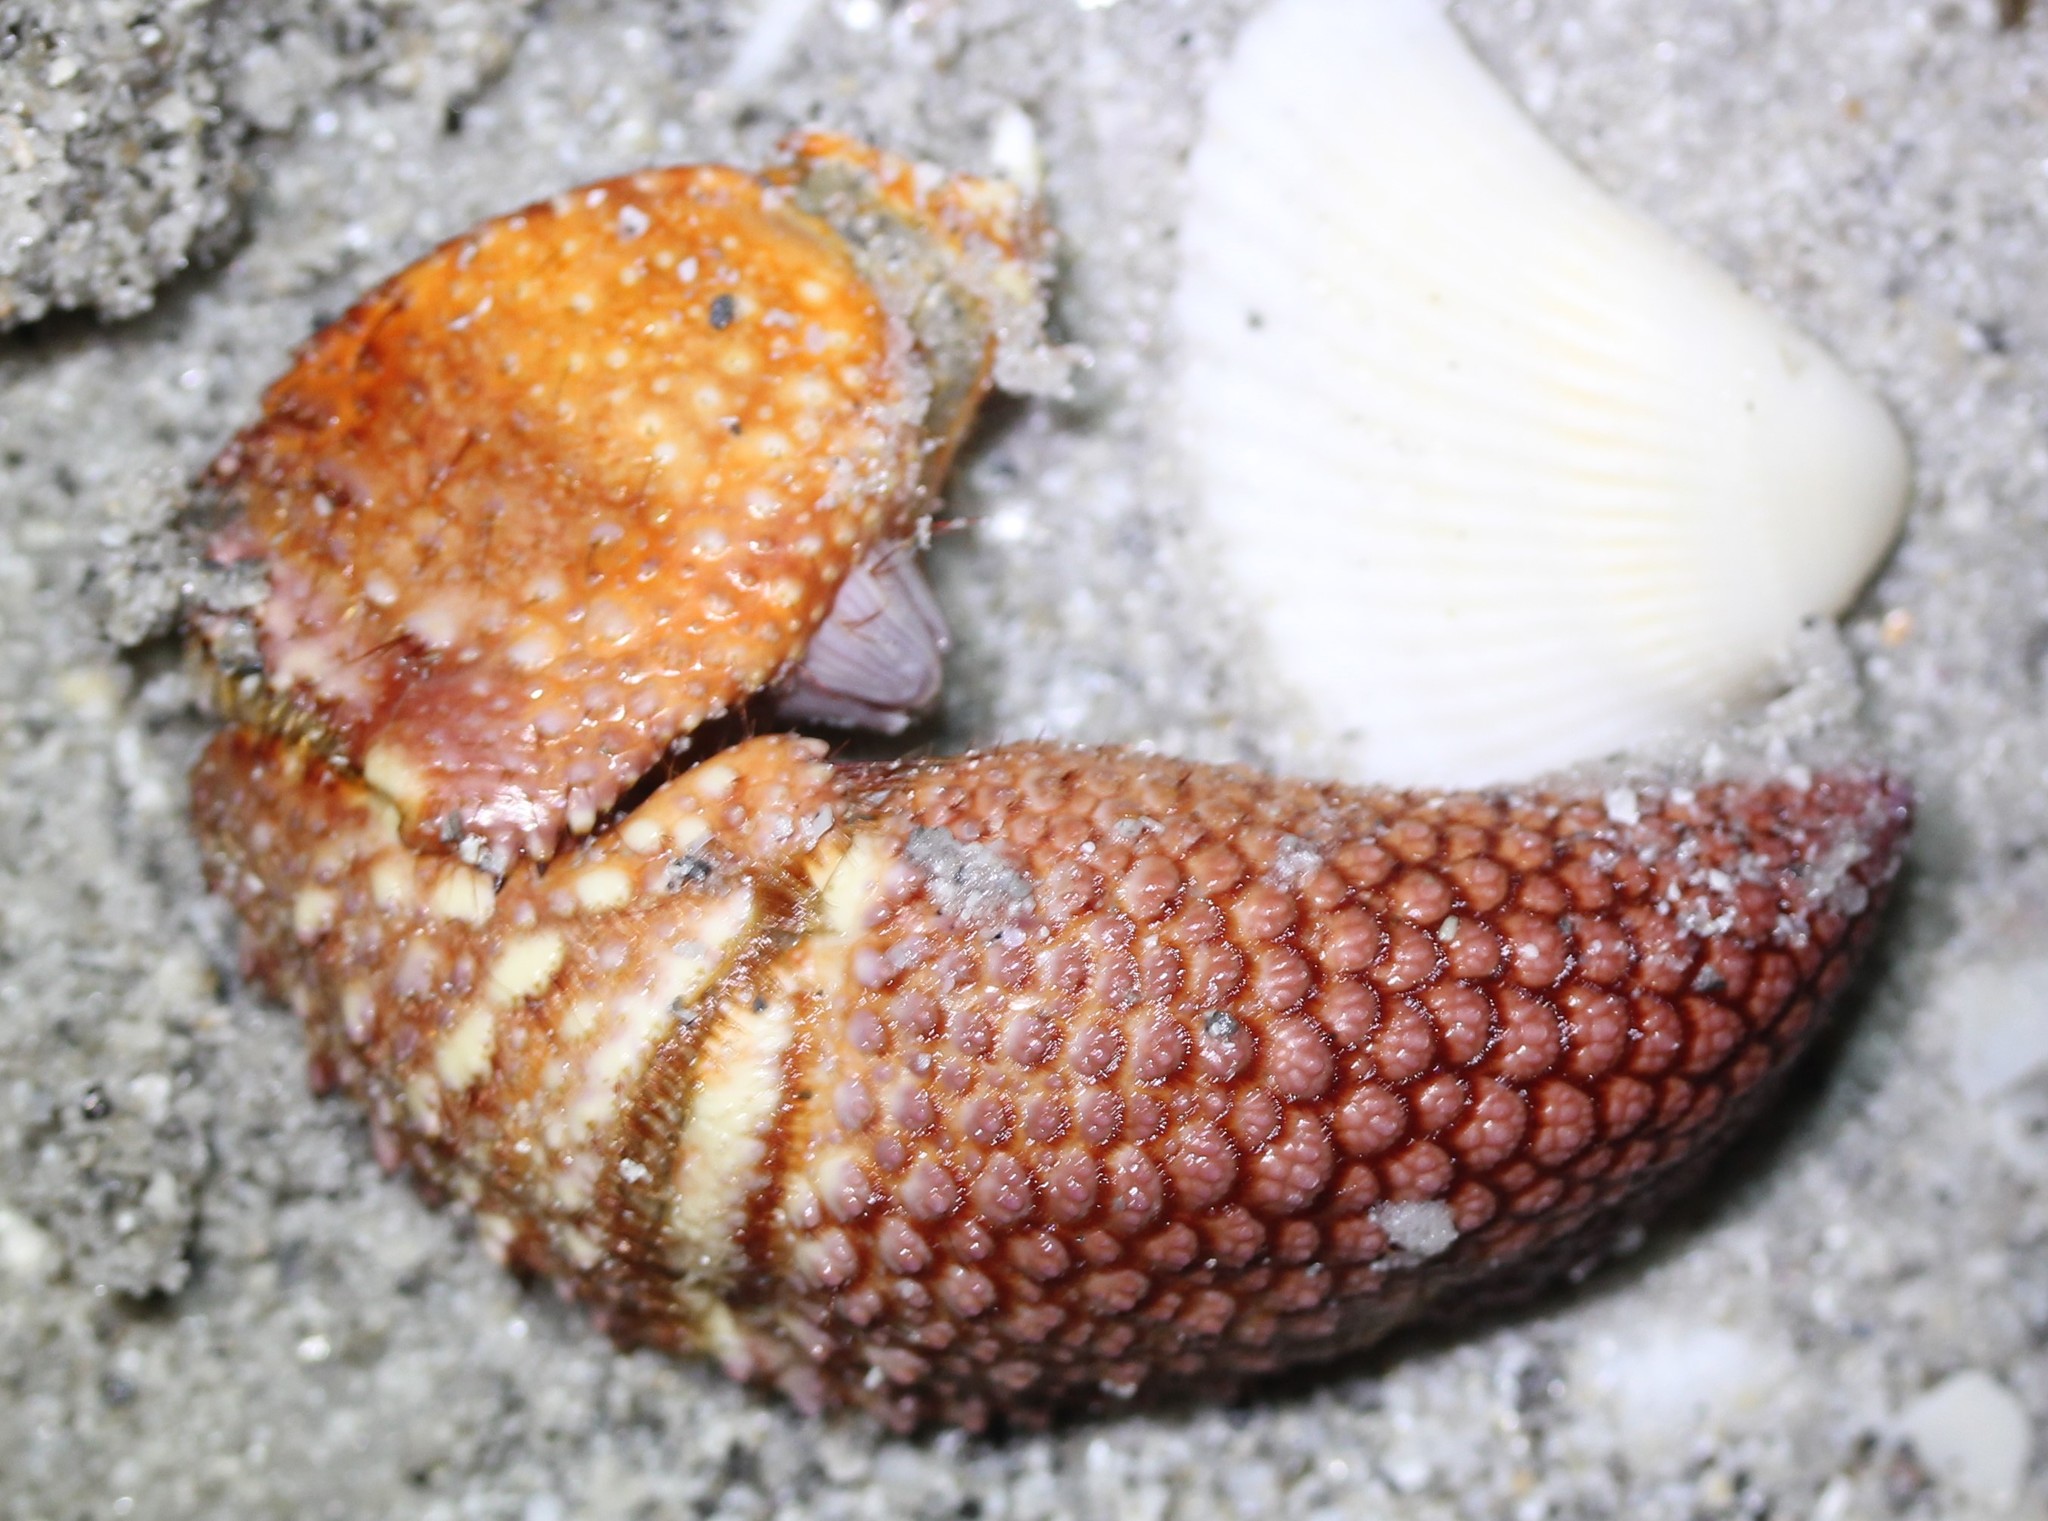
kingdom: Animalia
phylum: Arthropoda
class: Malacostraca
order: Decapoda
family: Diogenidae
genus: Petrochirus
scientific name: Petrochirus diogenes
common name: Giant hermit crab
